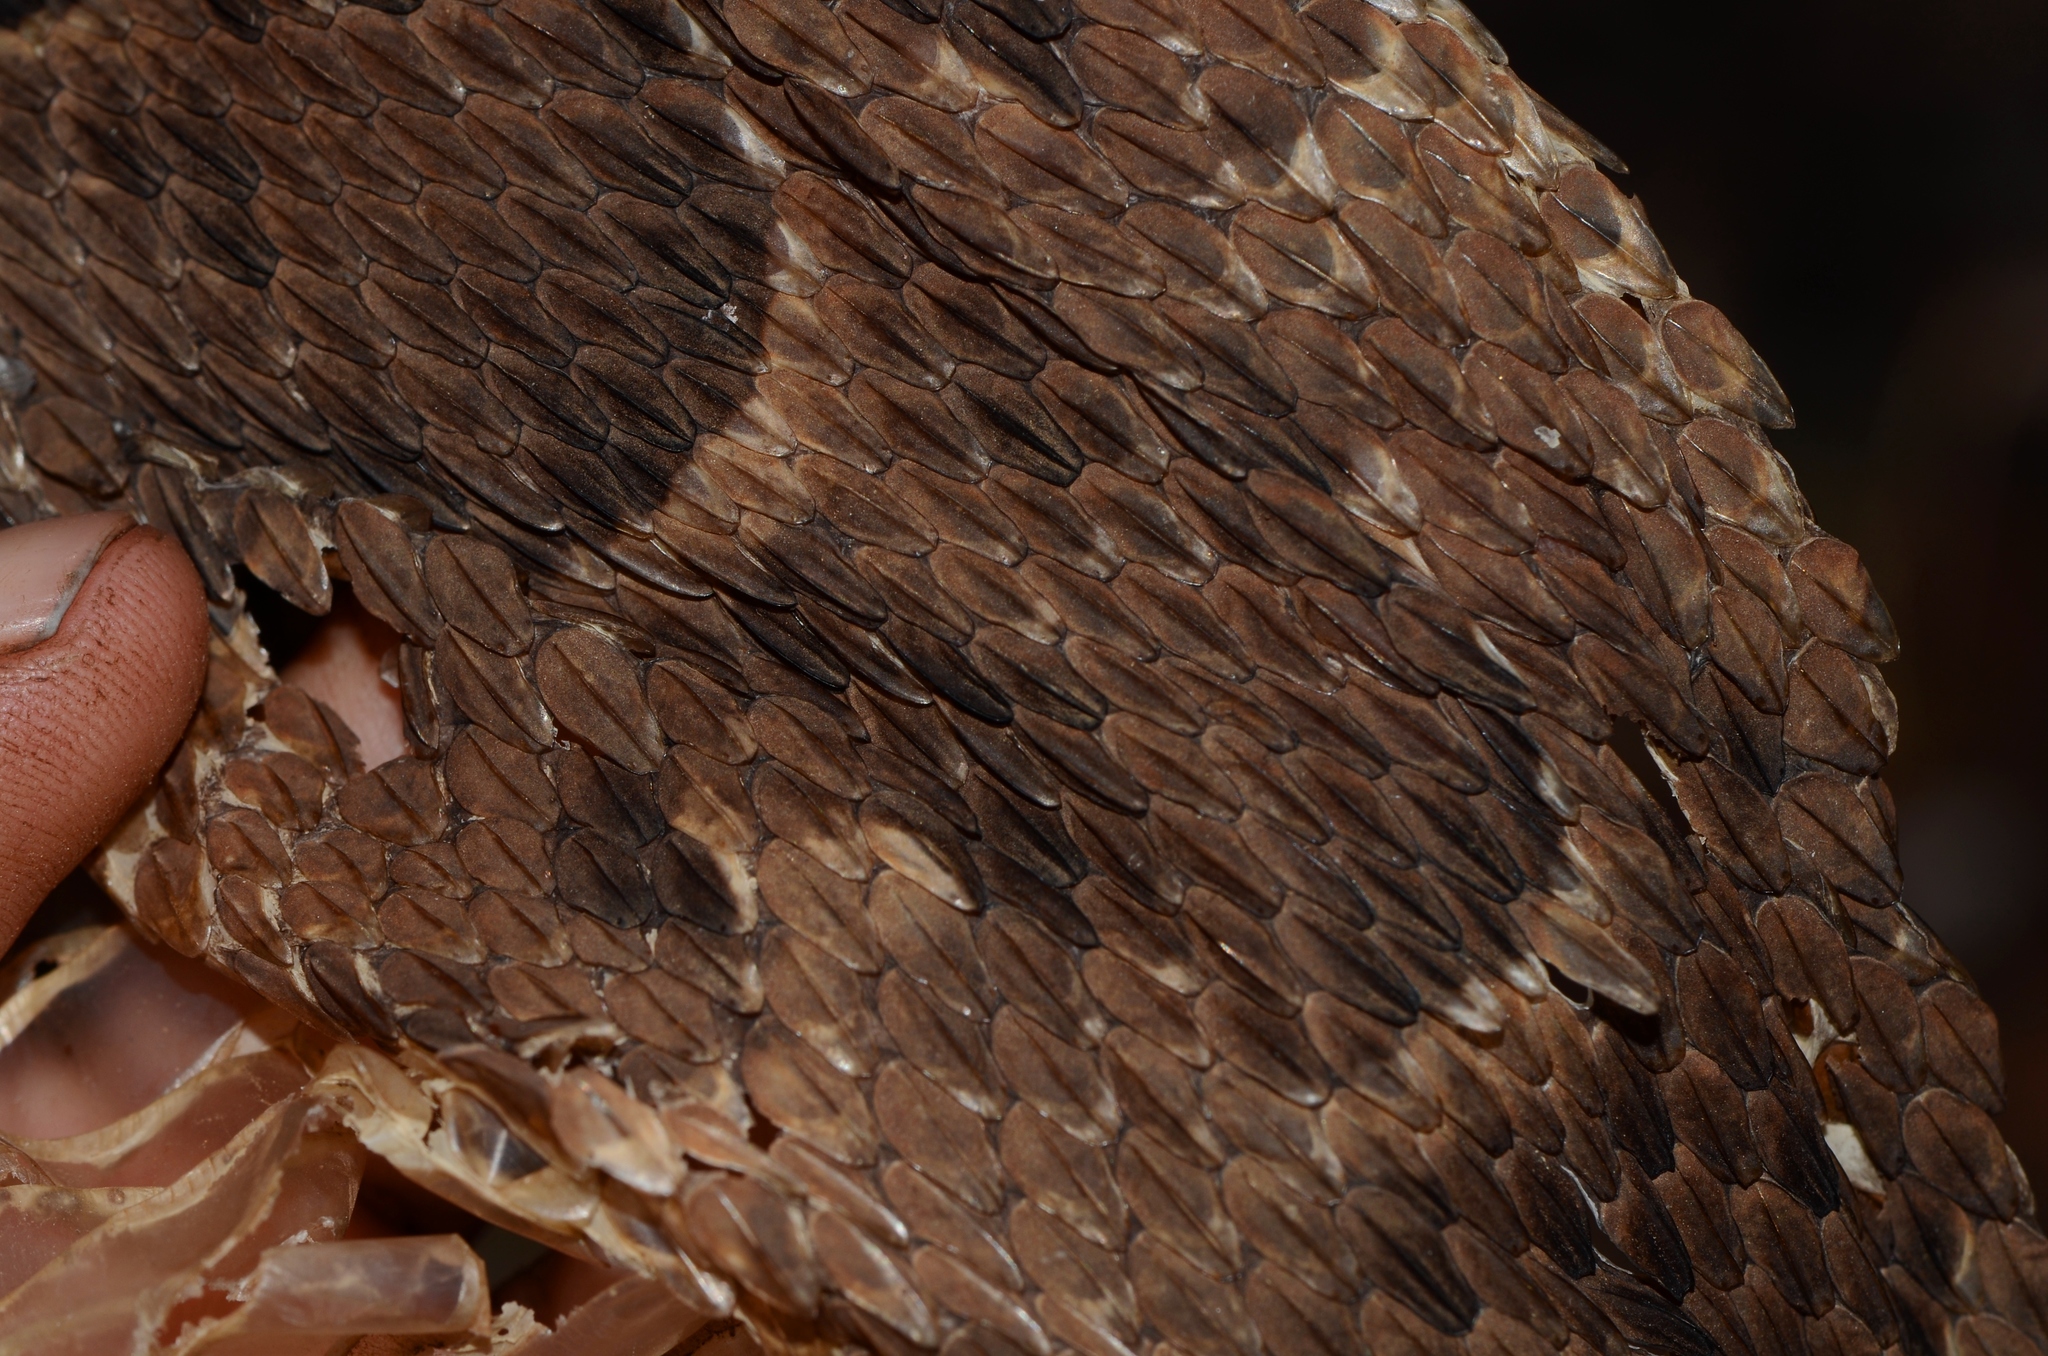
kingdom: Animalia
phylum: Chordata
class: Squamata
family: Viperidae
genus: Bitis
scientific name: Bitis arietans
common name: Puff adder
